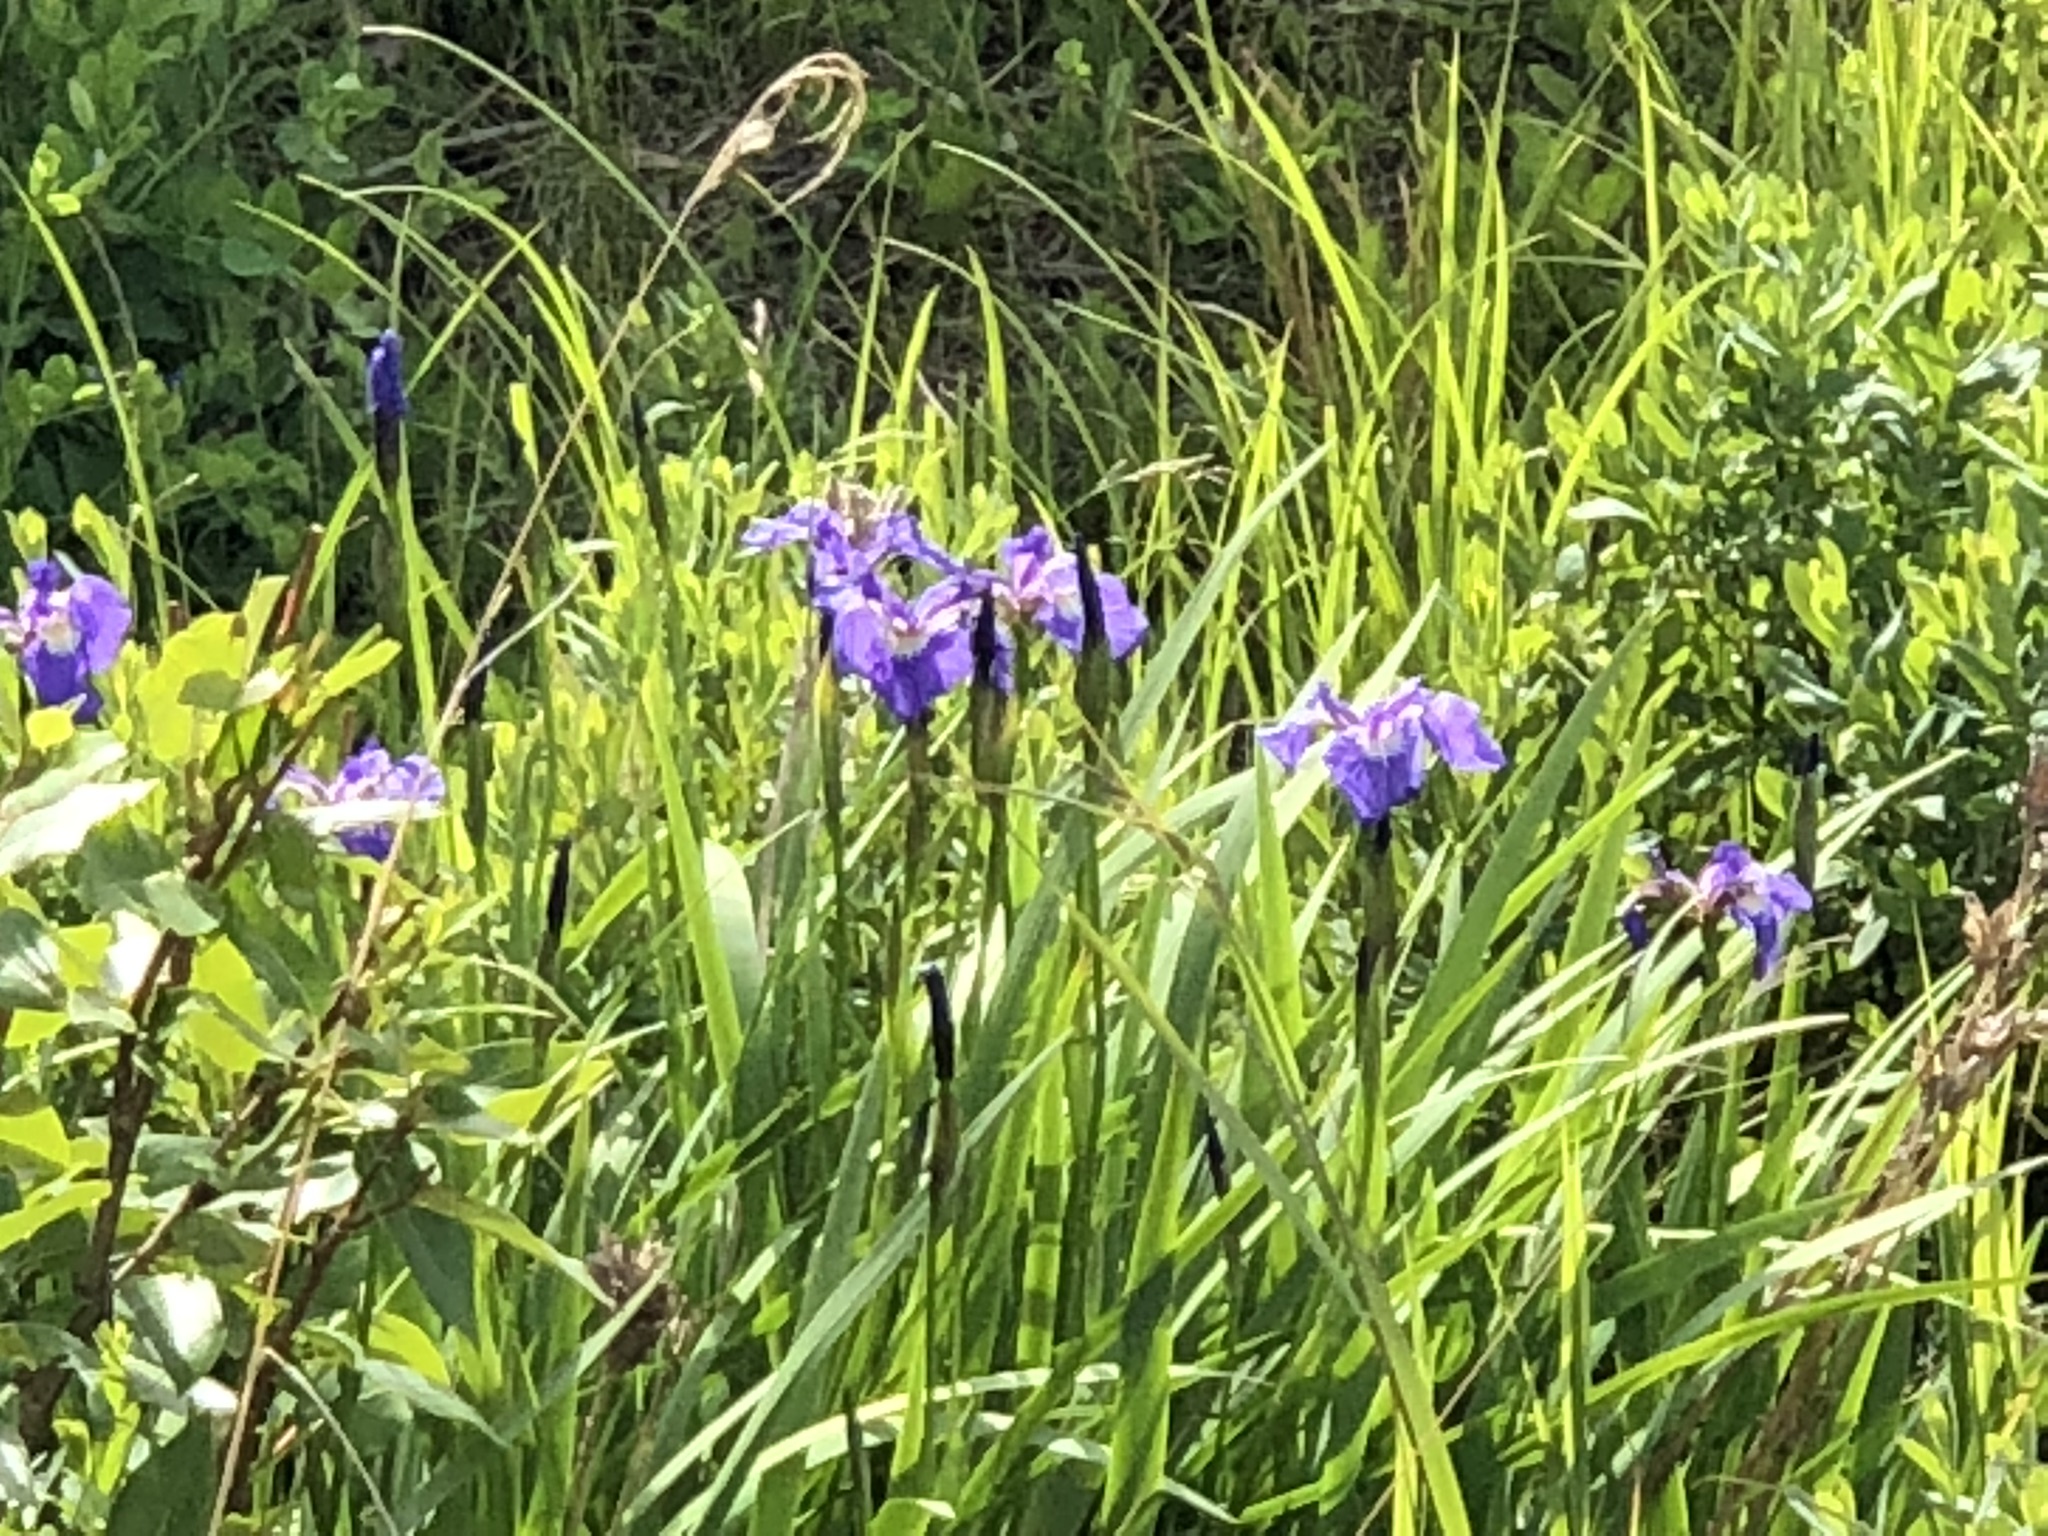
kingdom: Plantae
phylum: Tracheophyta
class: Liliopsida
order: Asparagales
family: Iridaceae
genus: Iris
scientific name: Iris setosa
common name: Arctic blue flag
